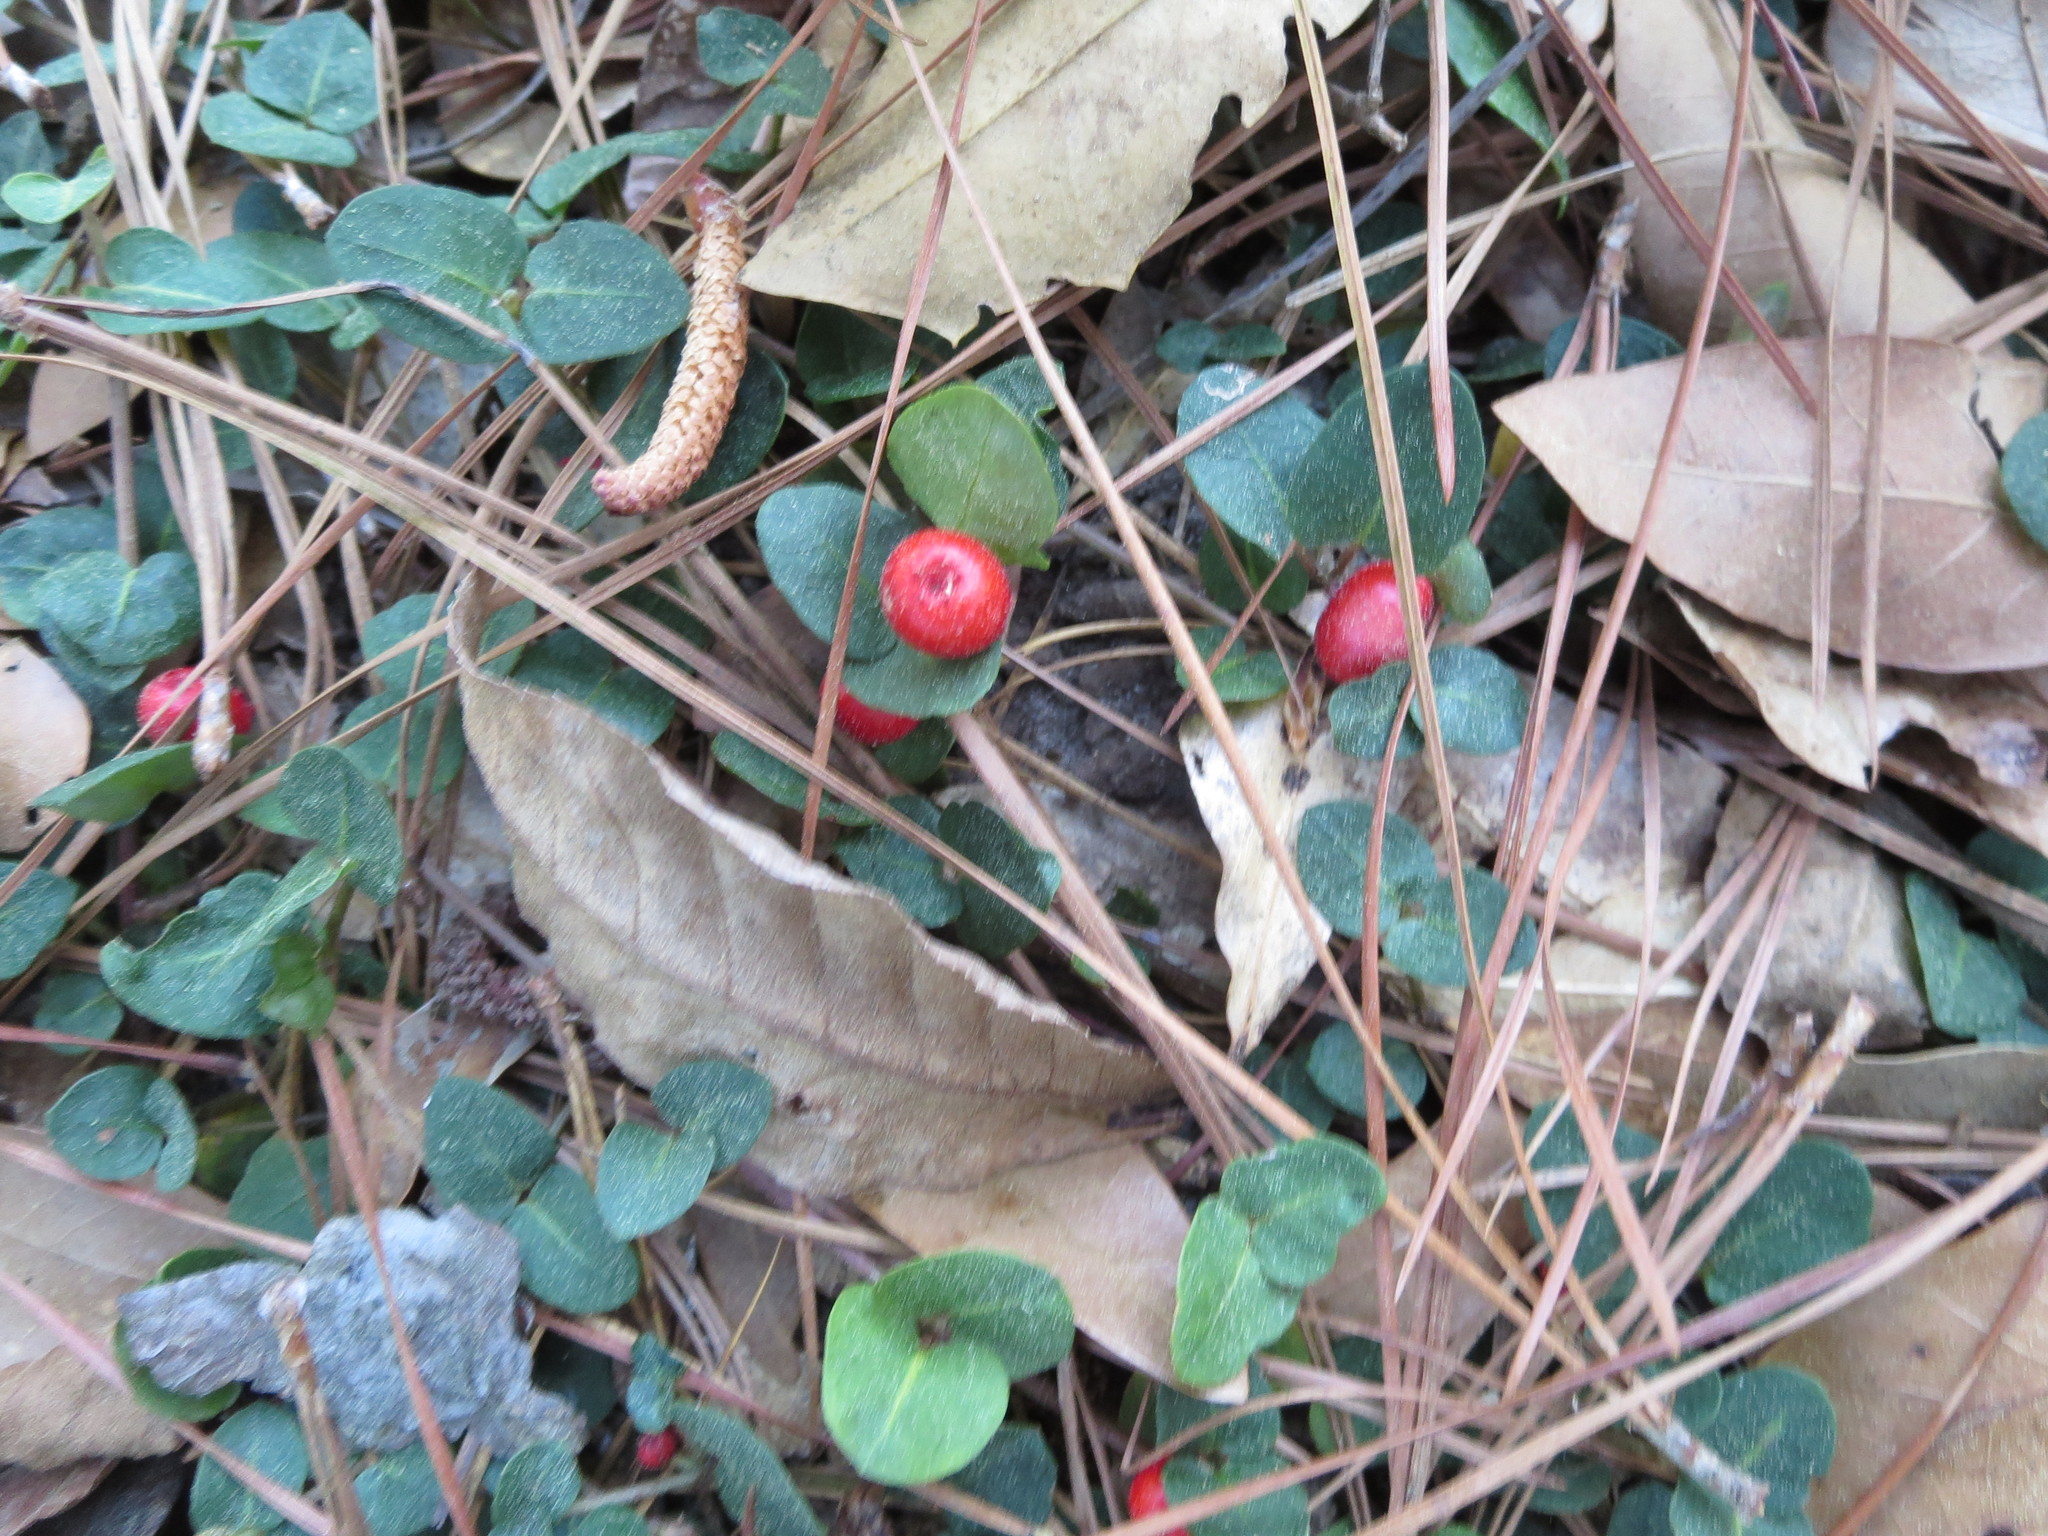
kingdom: Plantae
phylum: Tracheophyta
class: Magnoliopsida
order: Gentianales
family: Rubiaceae
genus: Mitchella
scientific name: Mitchella repens
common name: Partridge-berry
